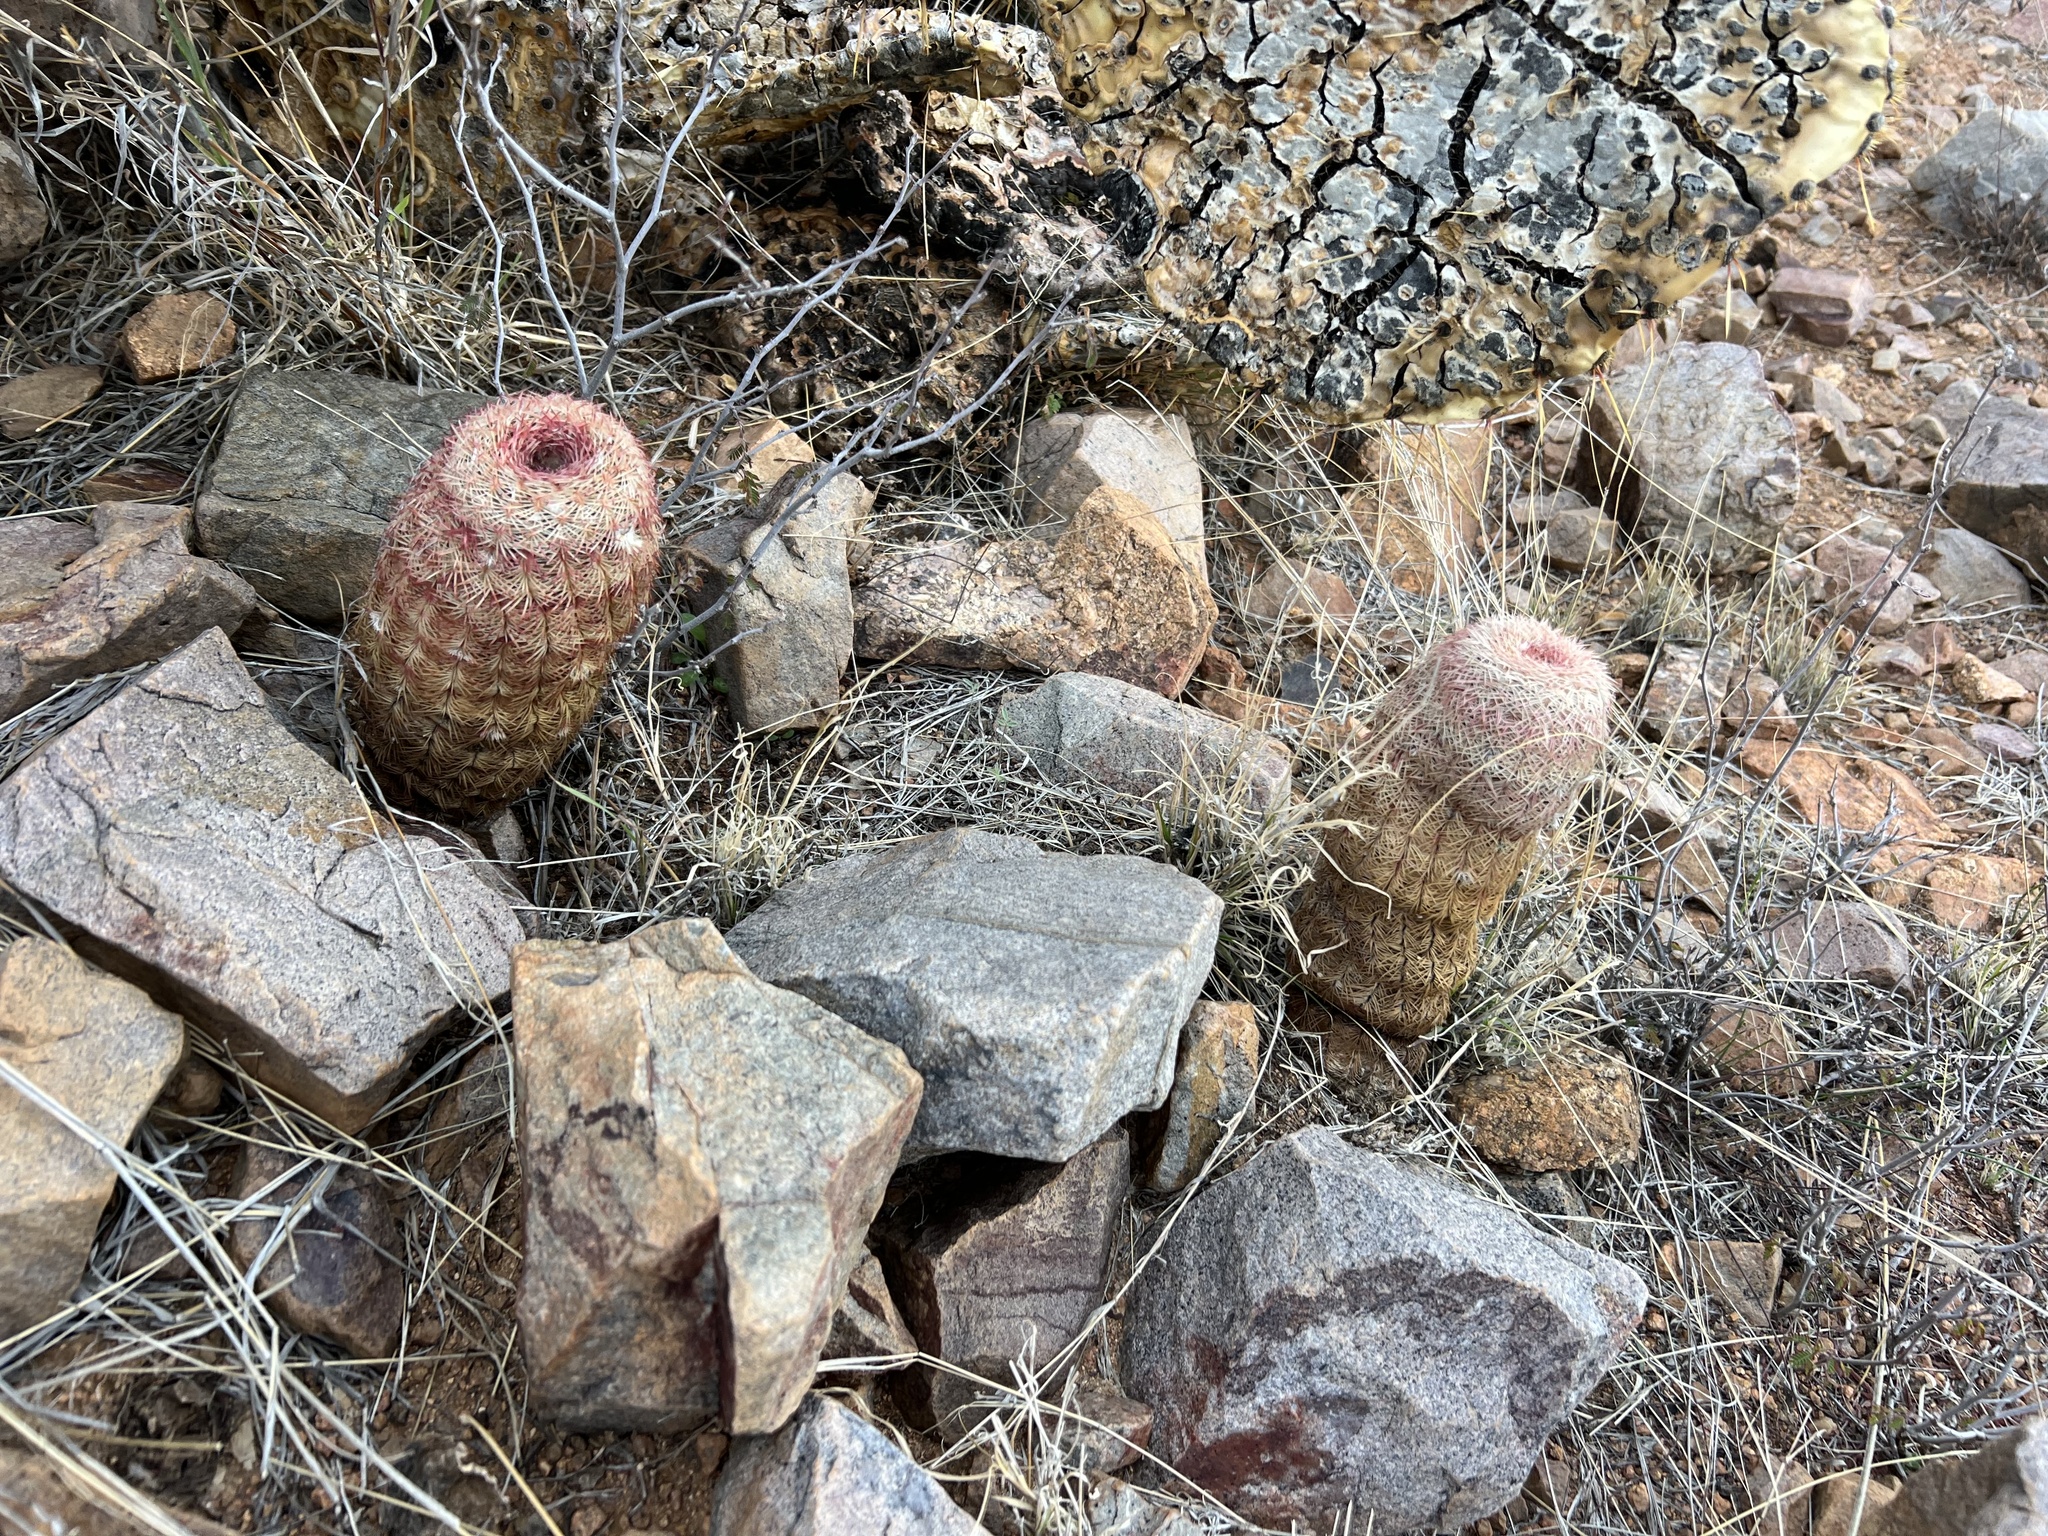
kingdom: Plantae
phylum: Tracheophyta
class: Magnoliopsida
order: Caryophyllales
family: Cactaceae
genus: Echinocereus
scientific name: Echinocereus rigidissimus
